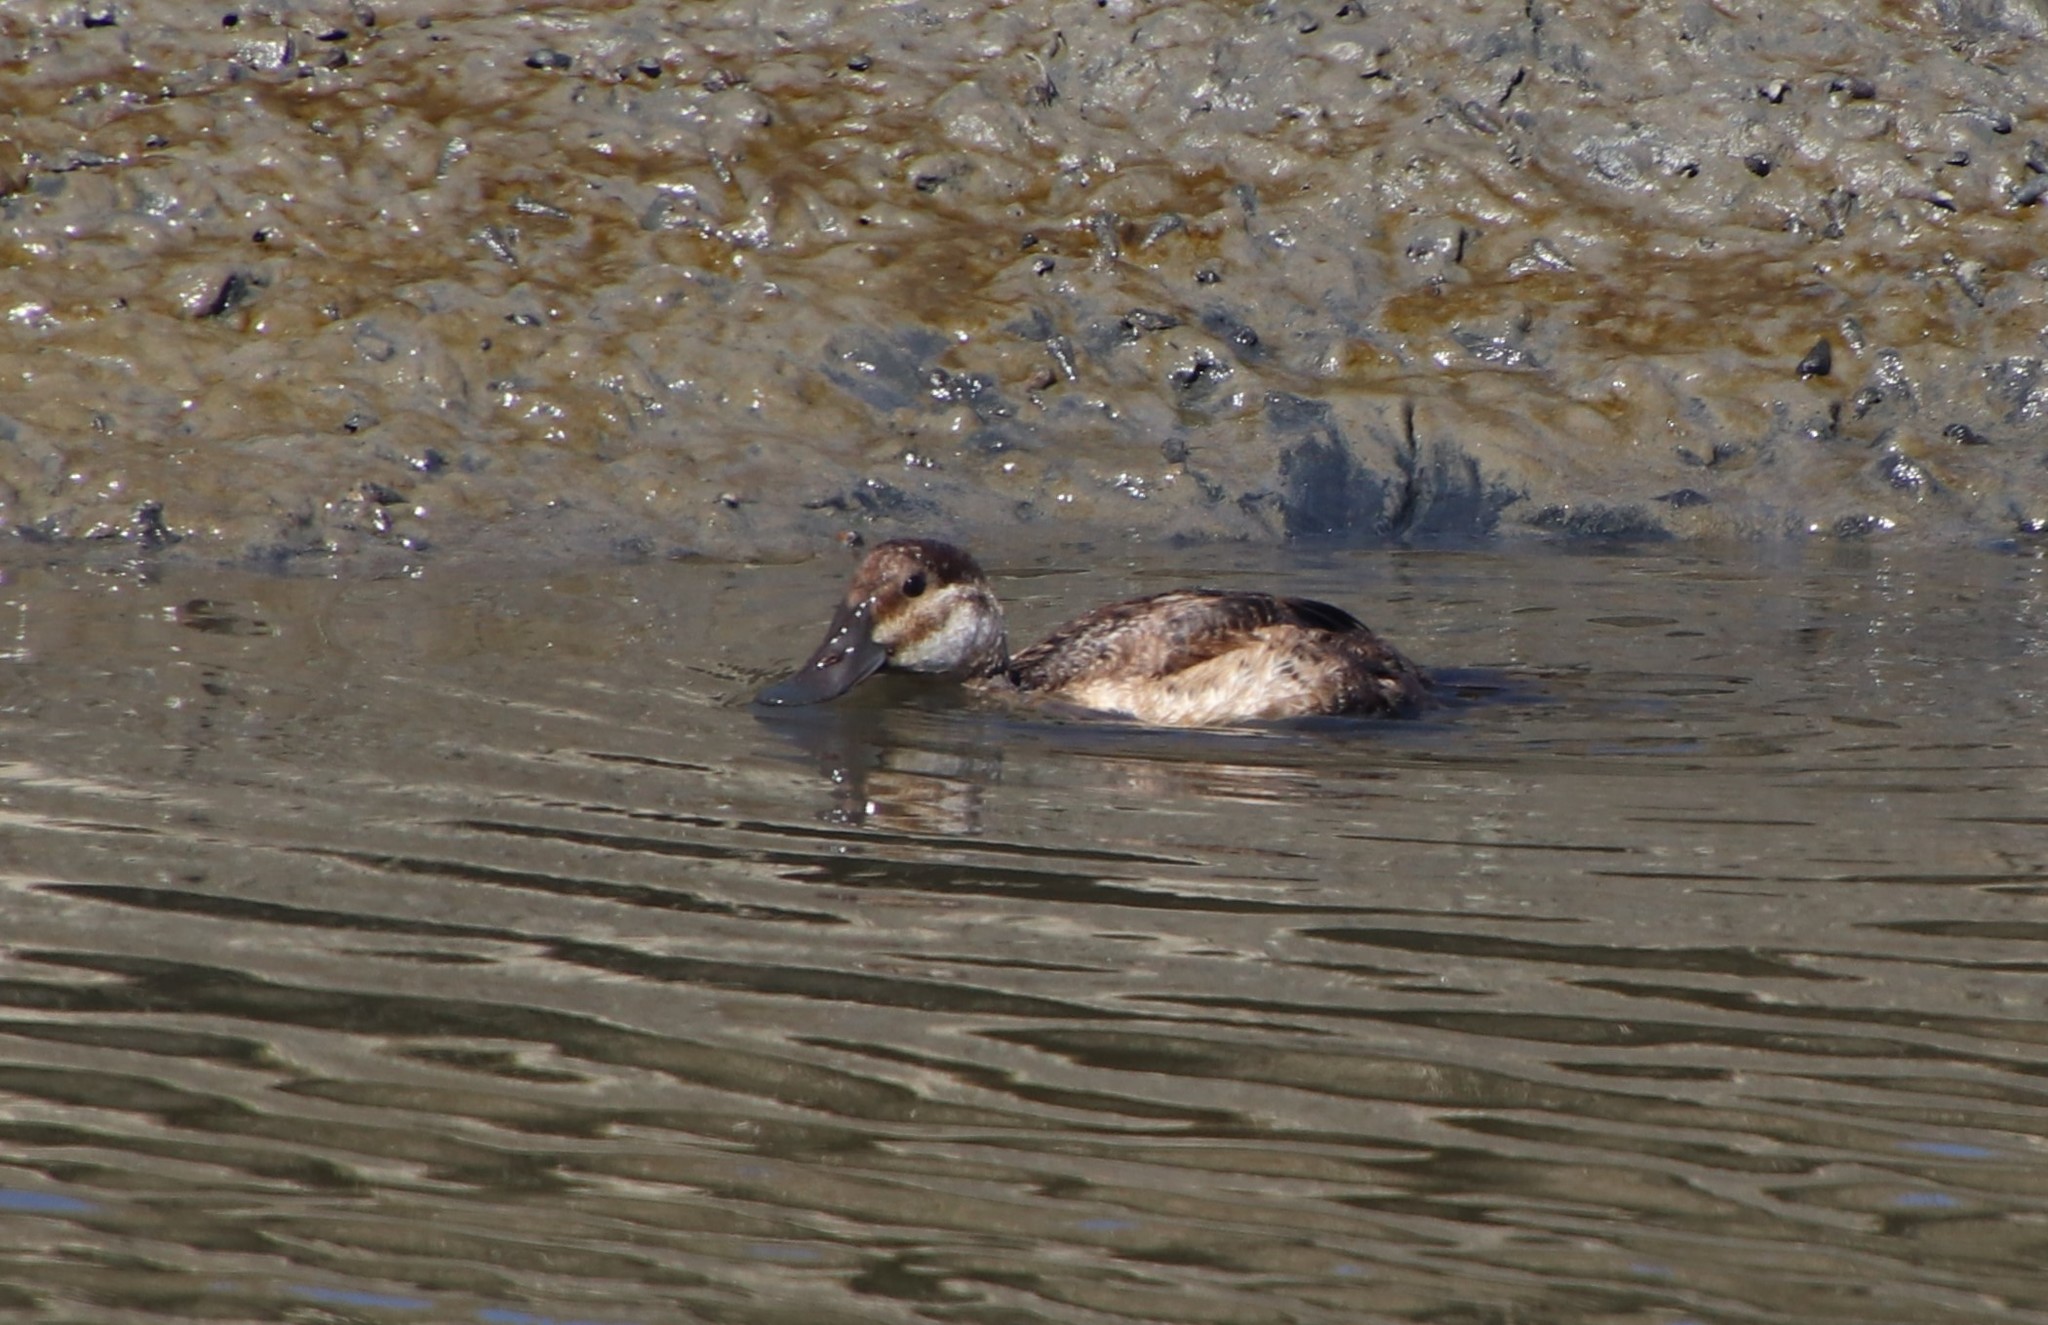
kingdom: Animalia
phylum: Chordata
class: Aves
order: Anseriformes
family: Anatidae
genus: Oxyura
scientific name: Oxyura jamaicensis
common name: Ruddy duck
